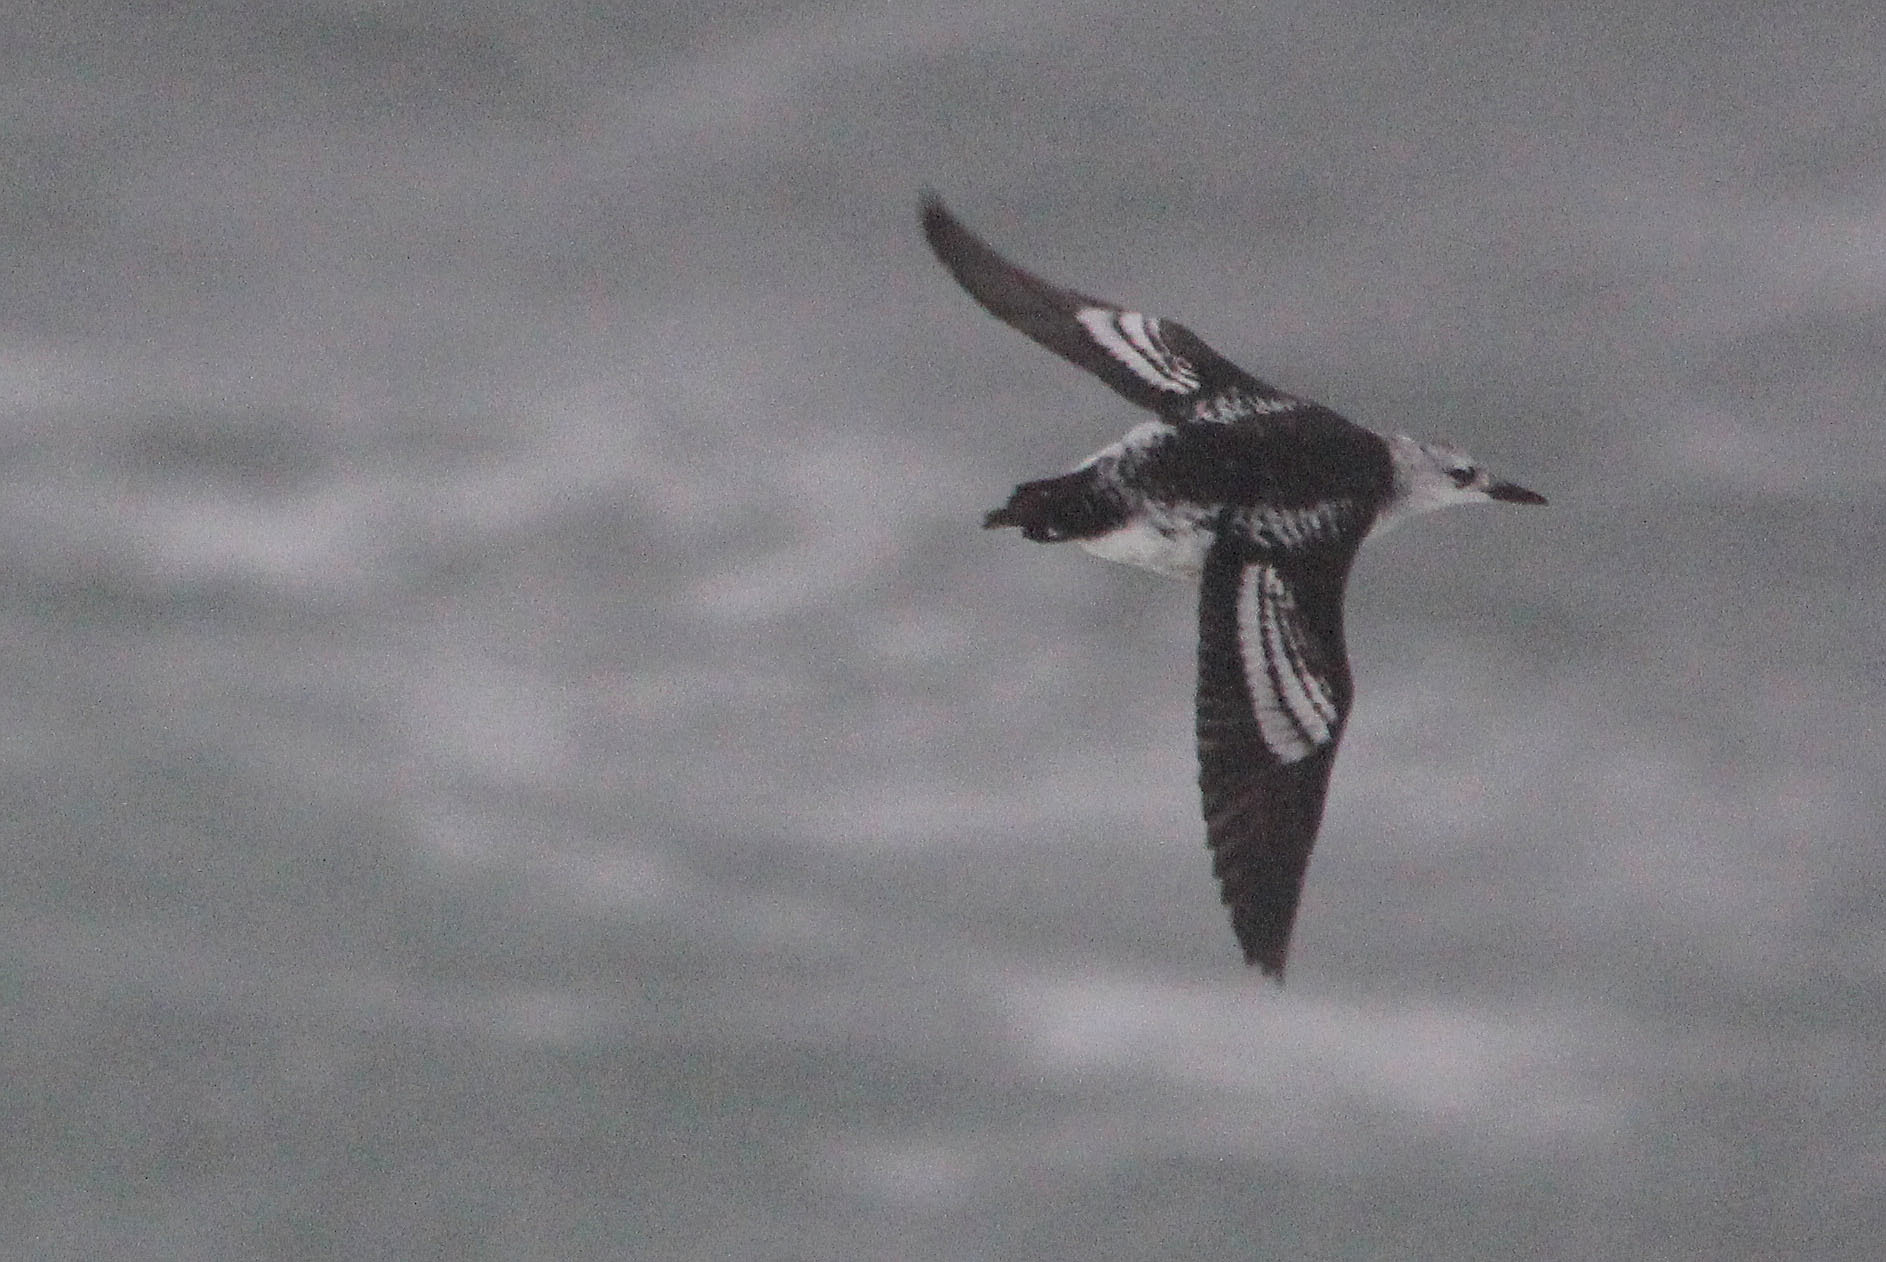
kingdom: Animalia
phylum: Chordata
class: Aves
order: Charadriiformes
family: Alcidae
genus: Cepphus
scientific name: Cepphus grylle
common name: Black guillemot
